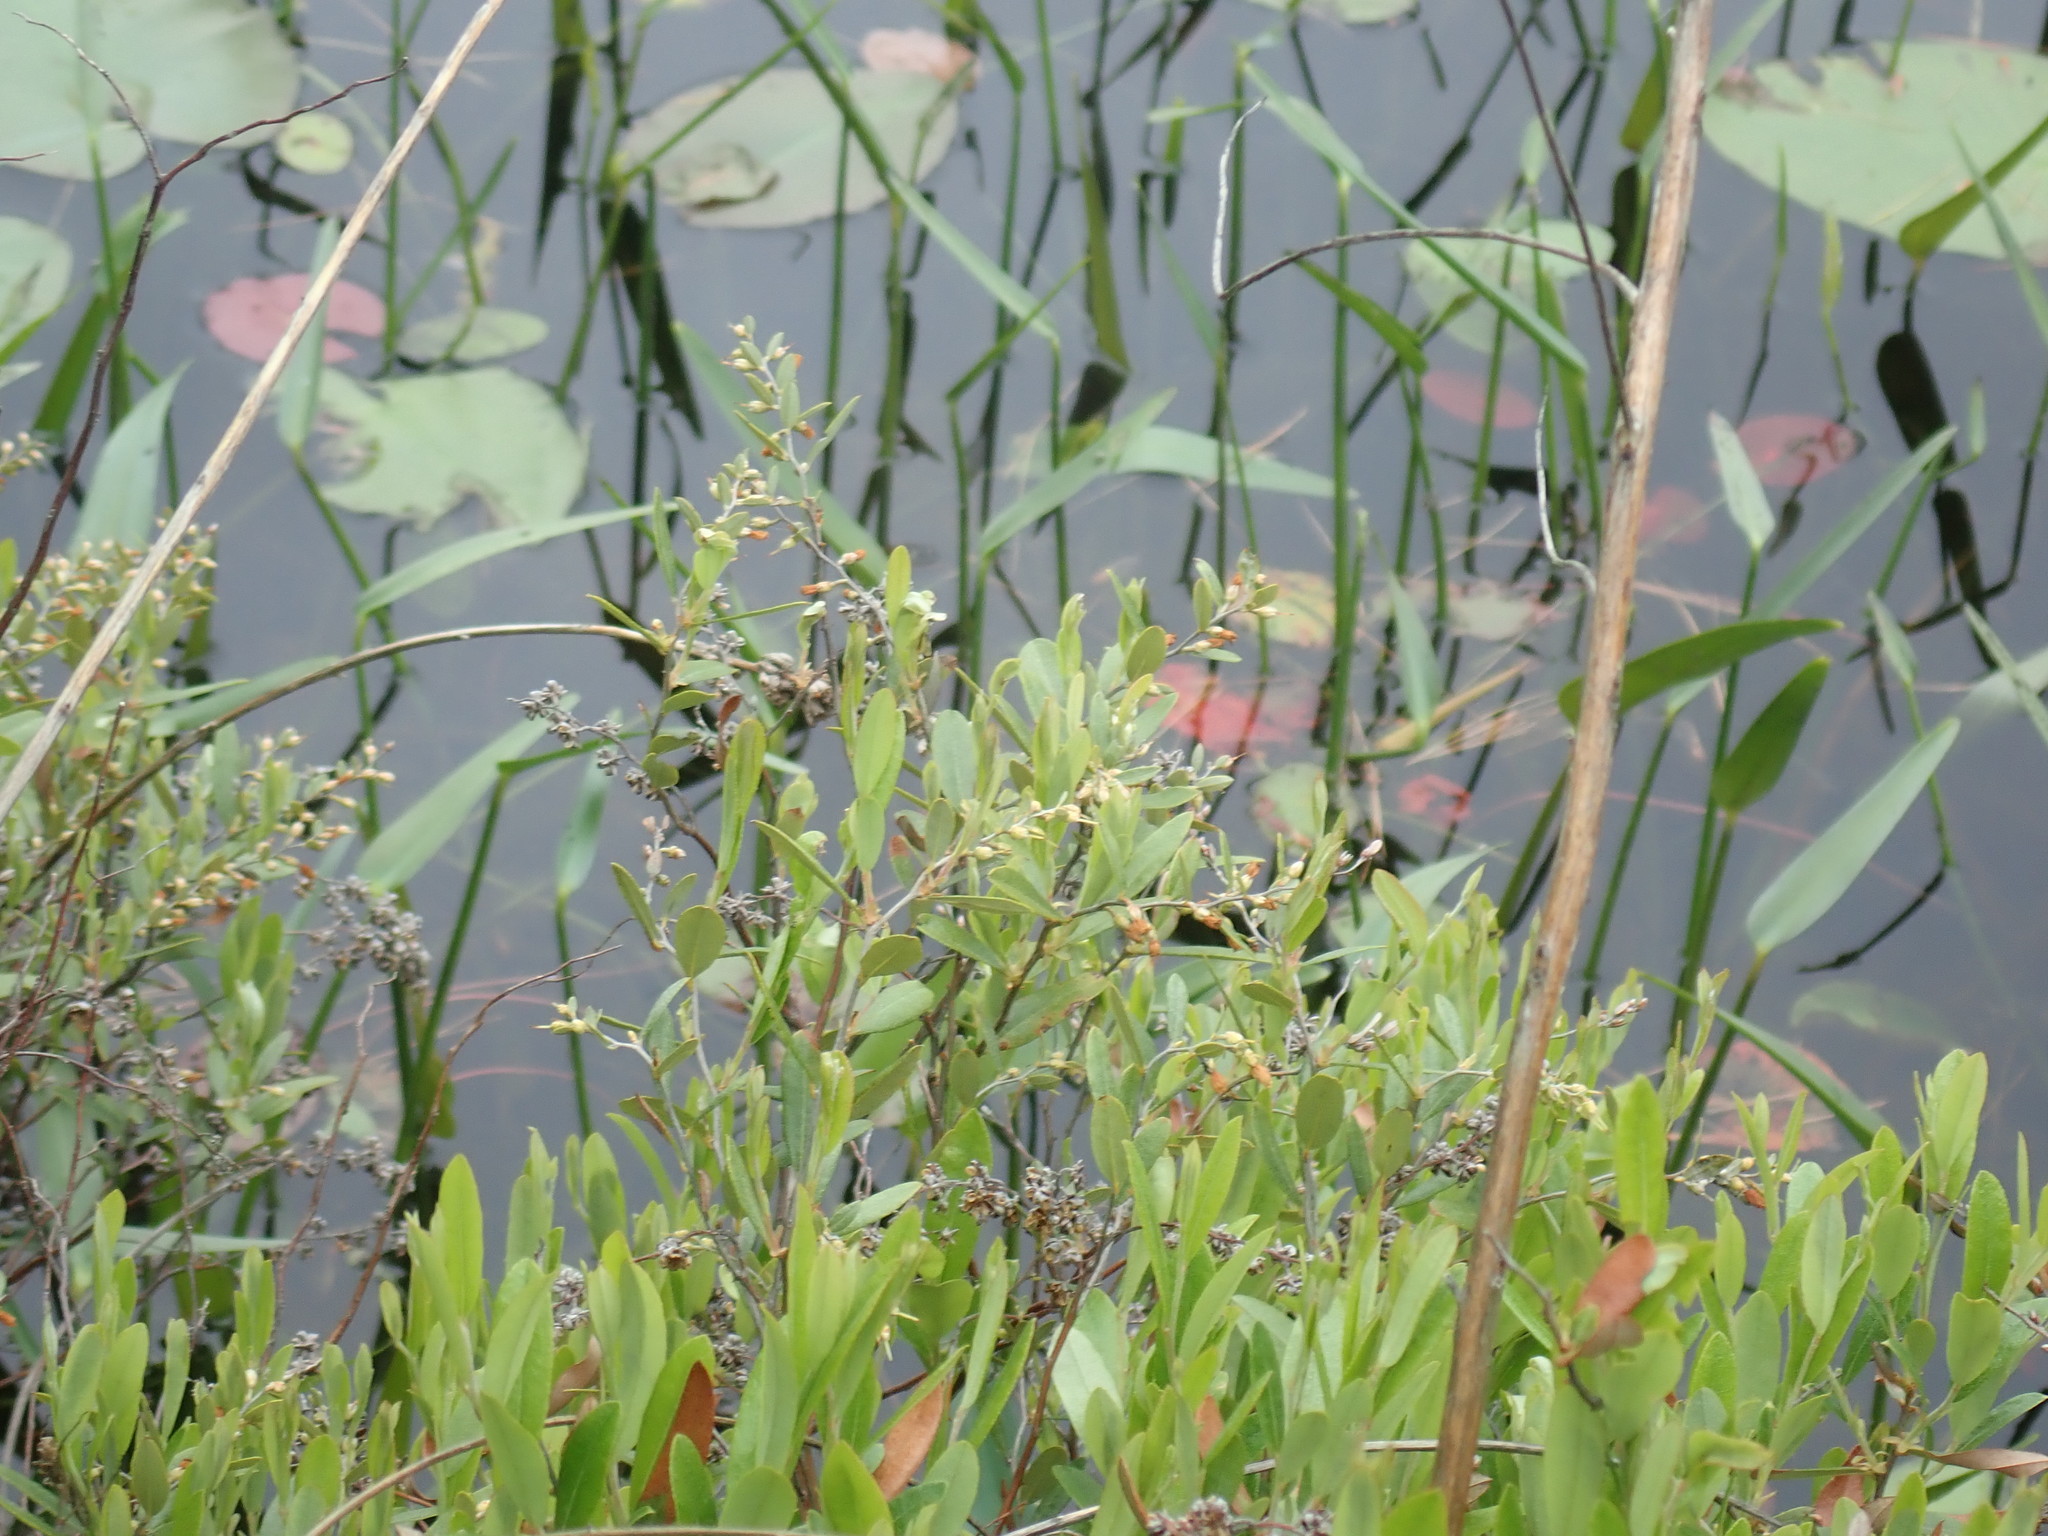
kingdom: Plantae
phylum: Tracheophyta
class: Magnoliopsida
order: Ericales
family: Ericaceae
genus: Chamaedaphne
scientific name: Chamaedaphne calyculata
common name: Leatherleaf
